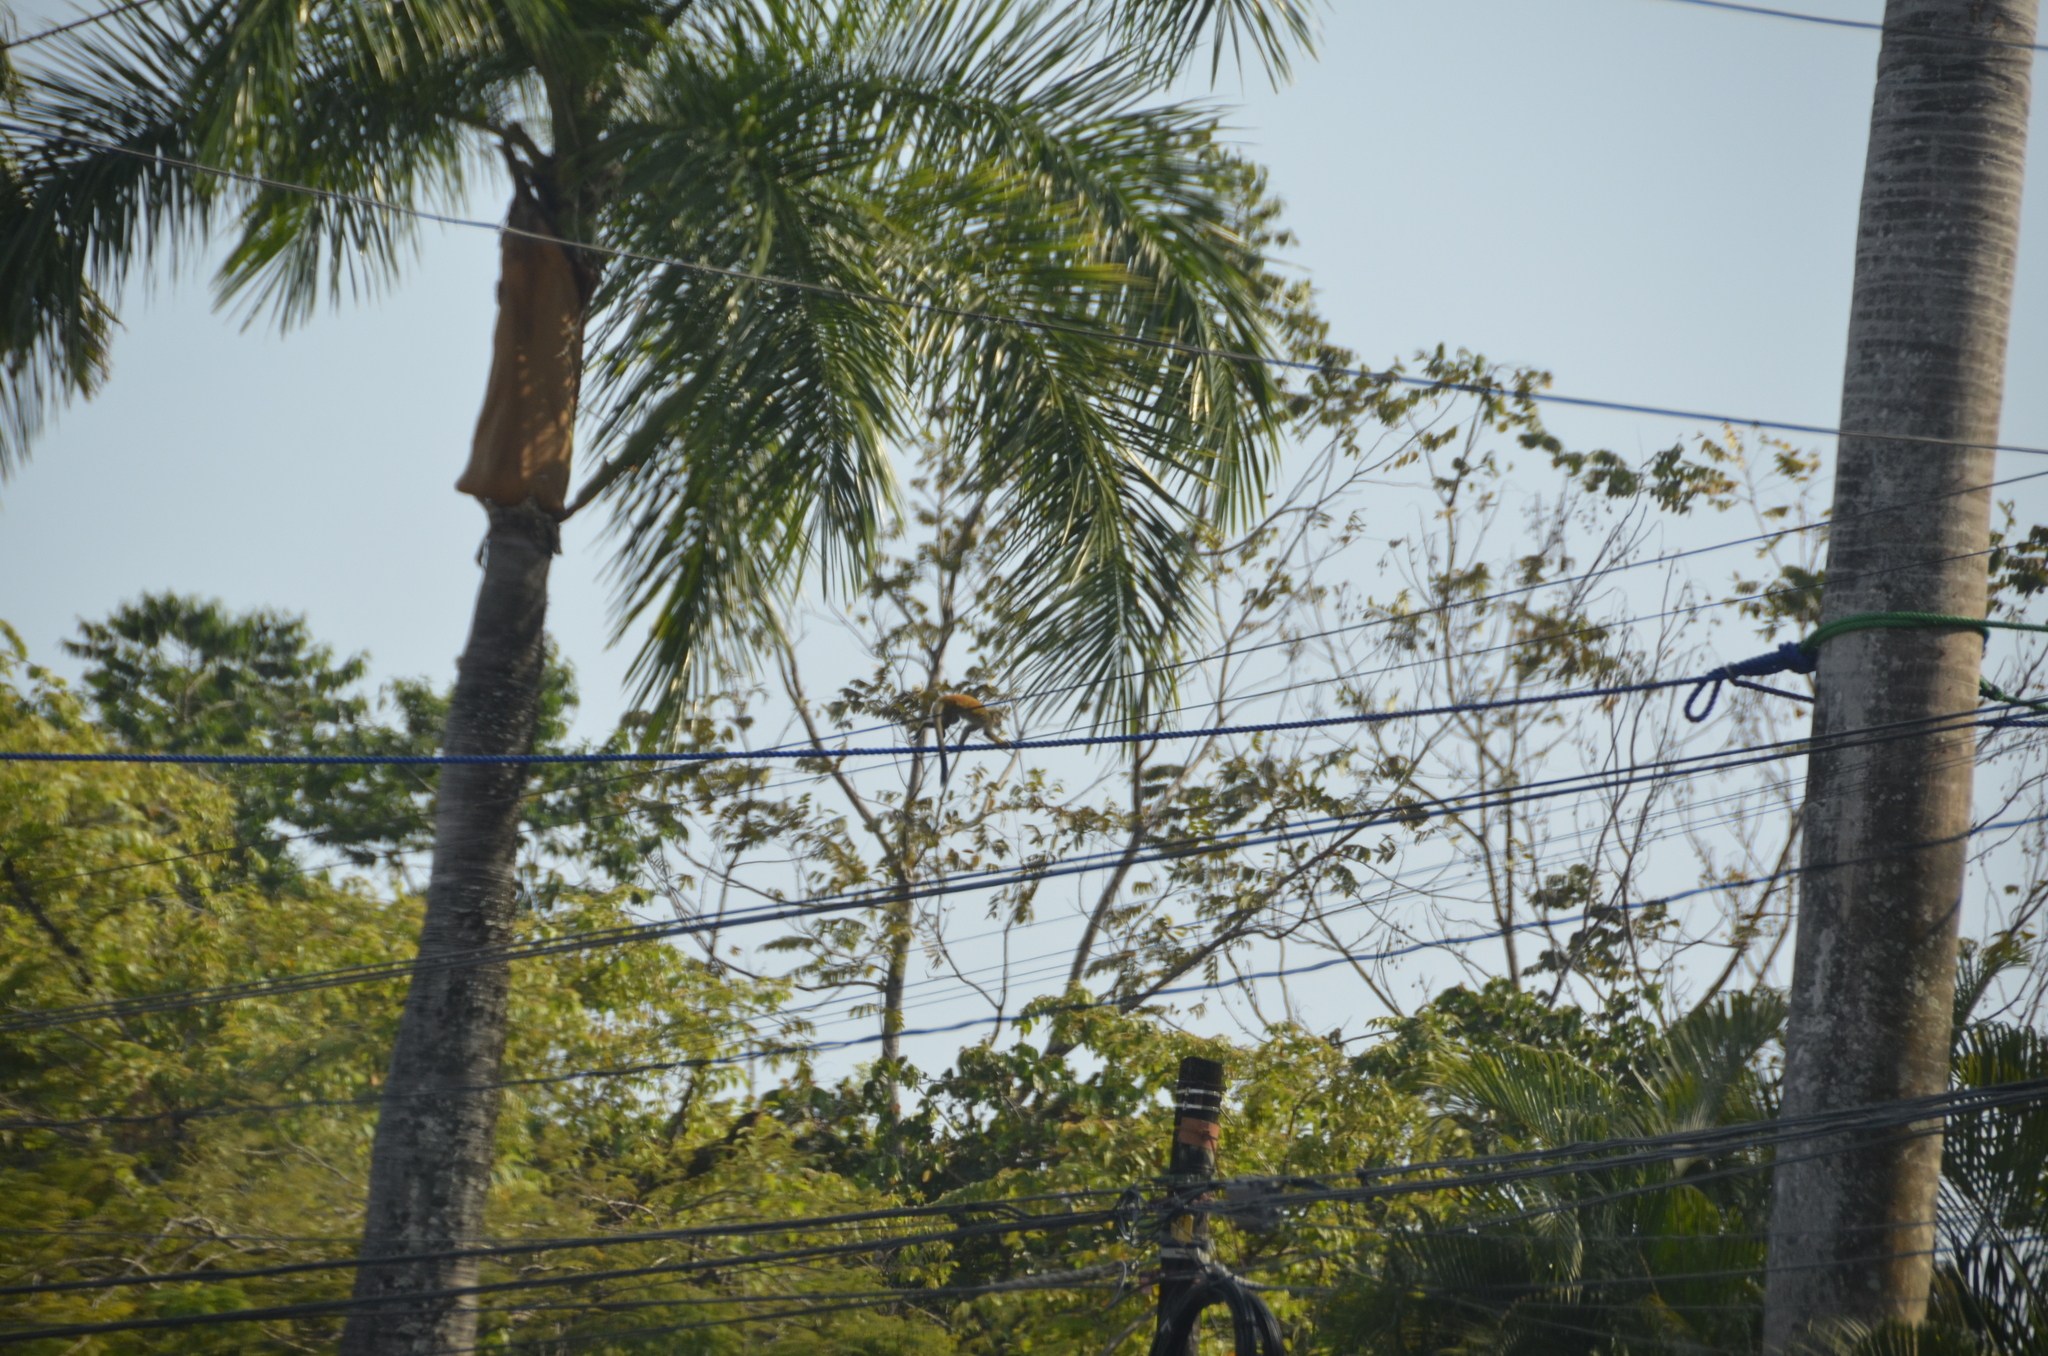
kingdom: Animalia
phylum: Chordata
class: Mammalia
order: Primates
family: Cebidae
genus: Saimiri
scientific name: Saimiri oerstedii
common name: Central american squirrel monkey
